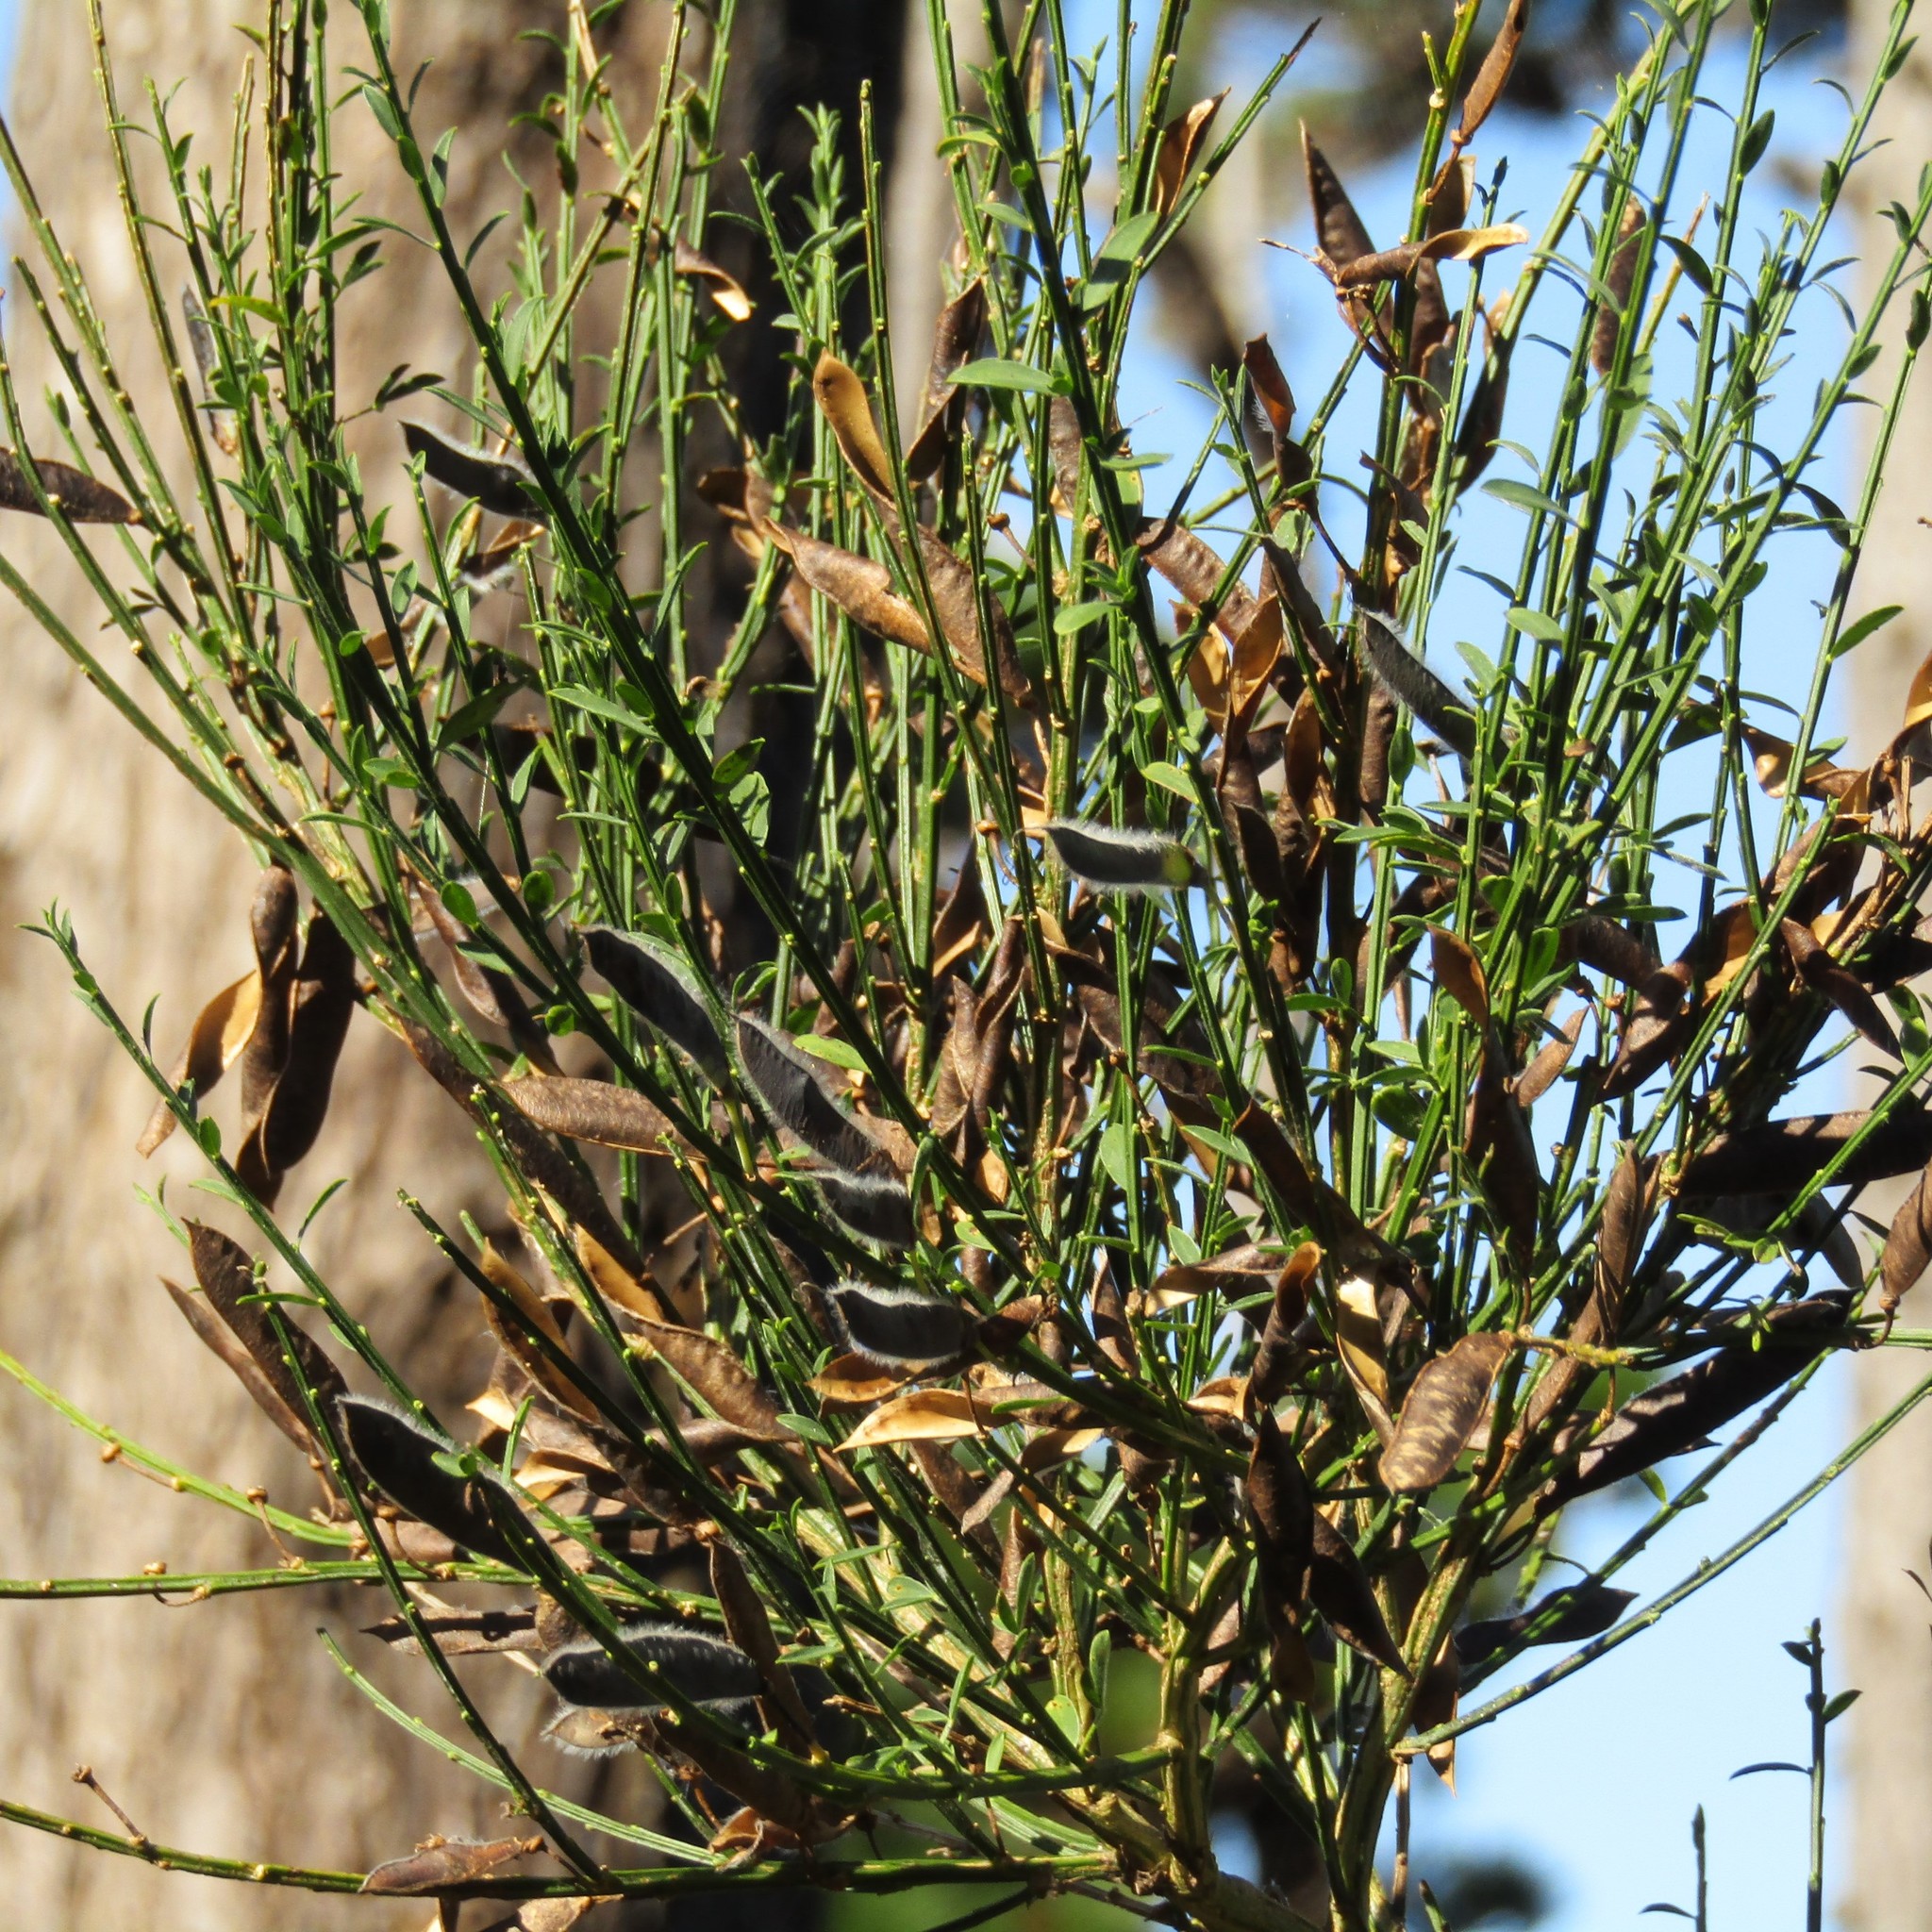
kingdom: Plantae
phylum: Tracheophyta
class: Magnoliopsida
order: Fabales
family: Fabaceae
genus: Cytisus
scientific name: Cytisus scoparius
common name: Scotch broom
